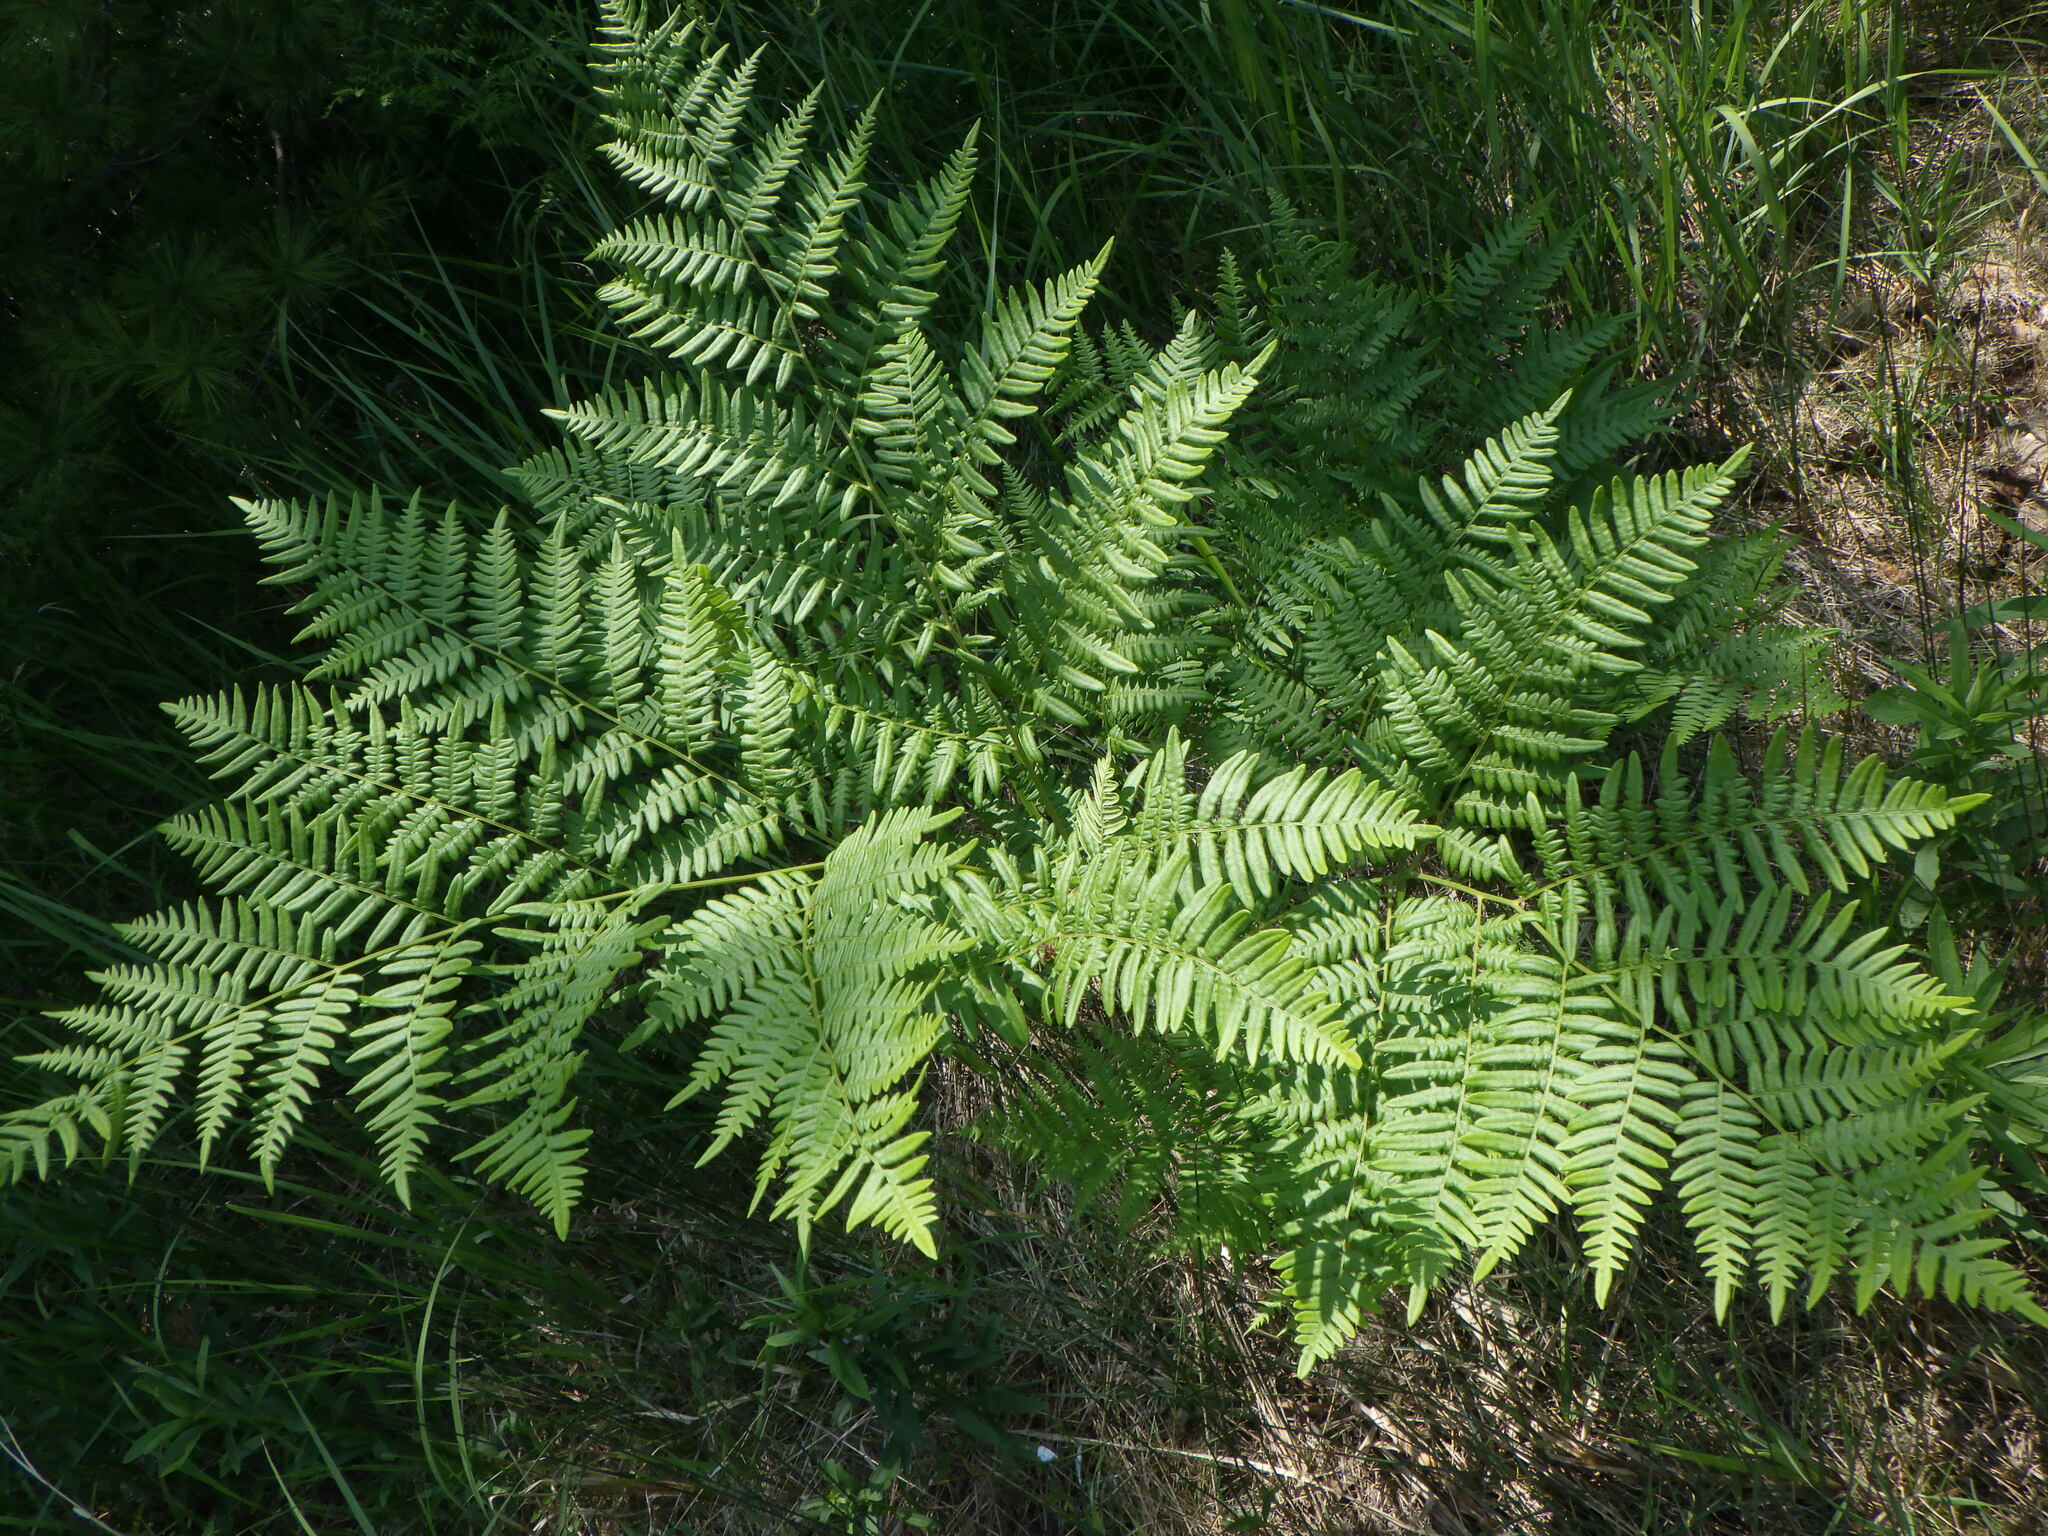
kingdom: Plantae
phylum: Tracheophyta
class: Polypodiopsida
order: Polypodiales
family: Dennstaedtiaceae
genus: Pteridium
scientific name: Pteridium aquilinum
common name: Bracken
